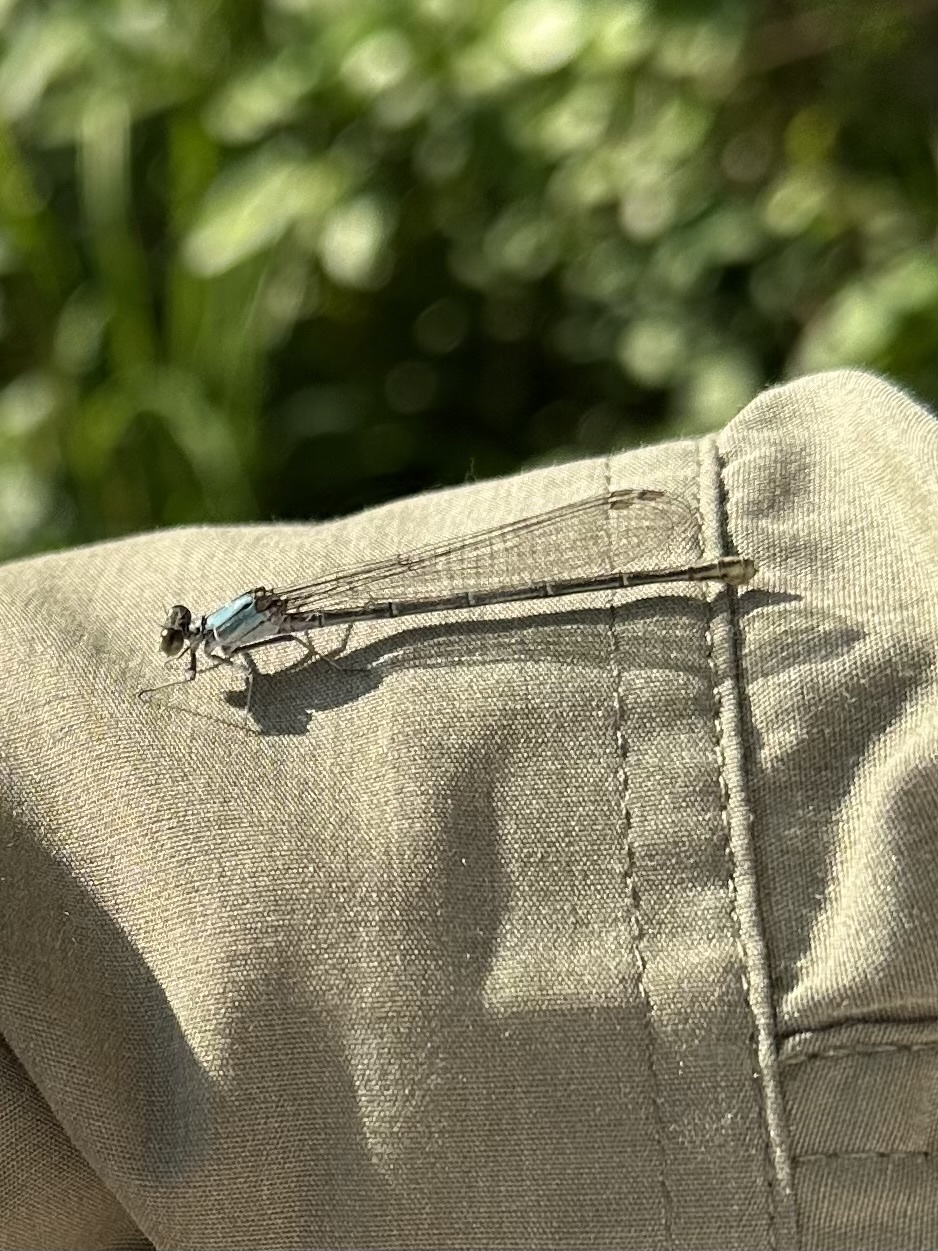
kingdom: Animalia
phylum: Arthropoda
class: Insecta
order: Odonata
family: Coenagrionidae
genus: Argia
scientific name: Argia moesta
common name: Powdered dancer
